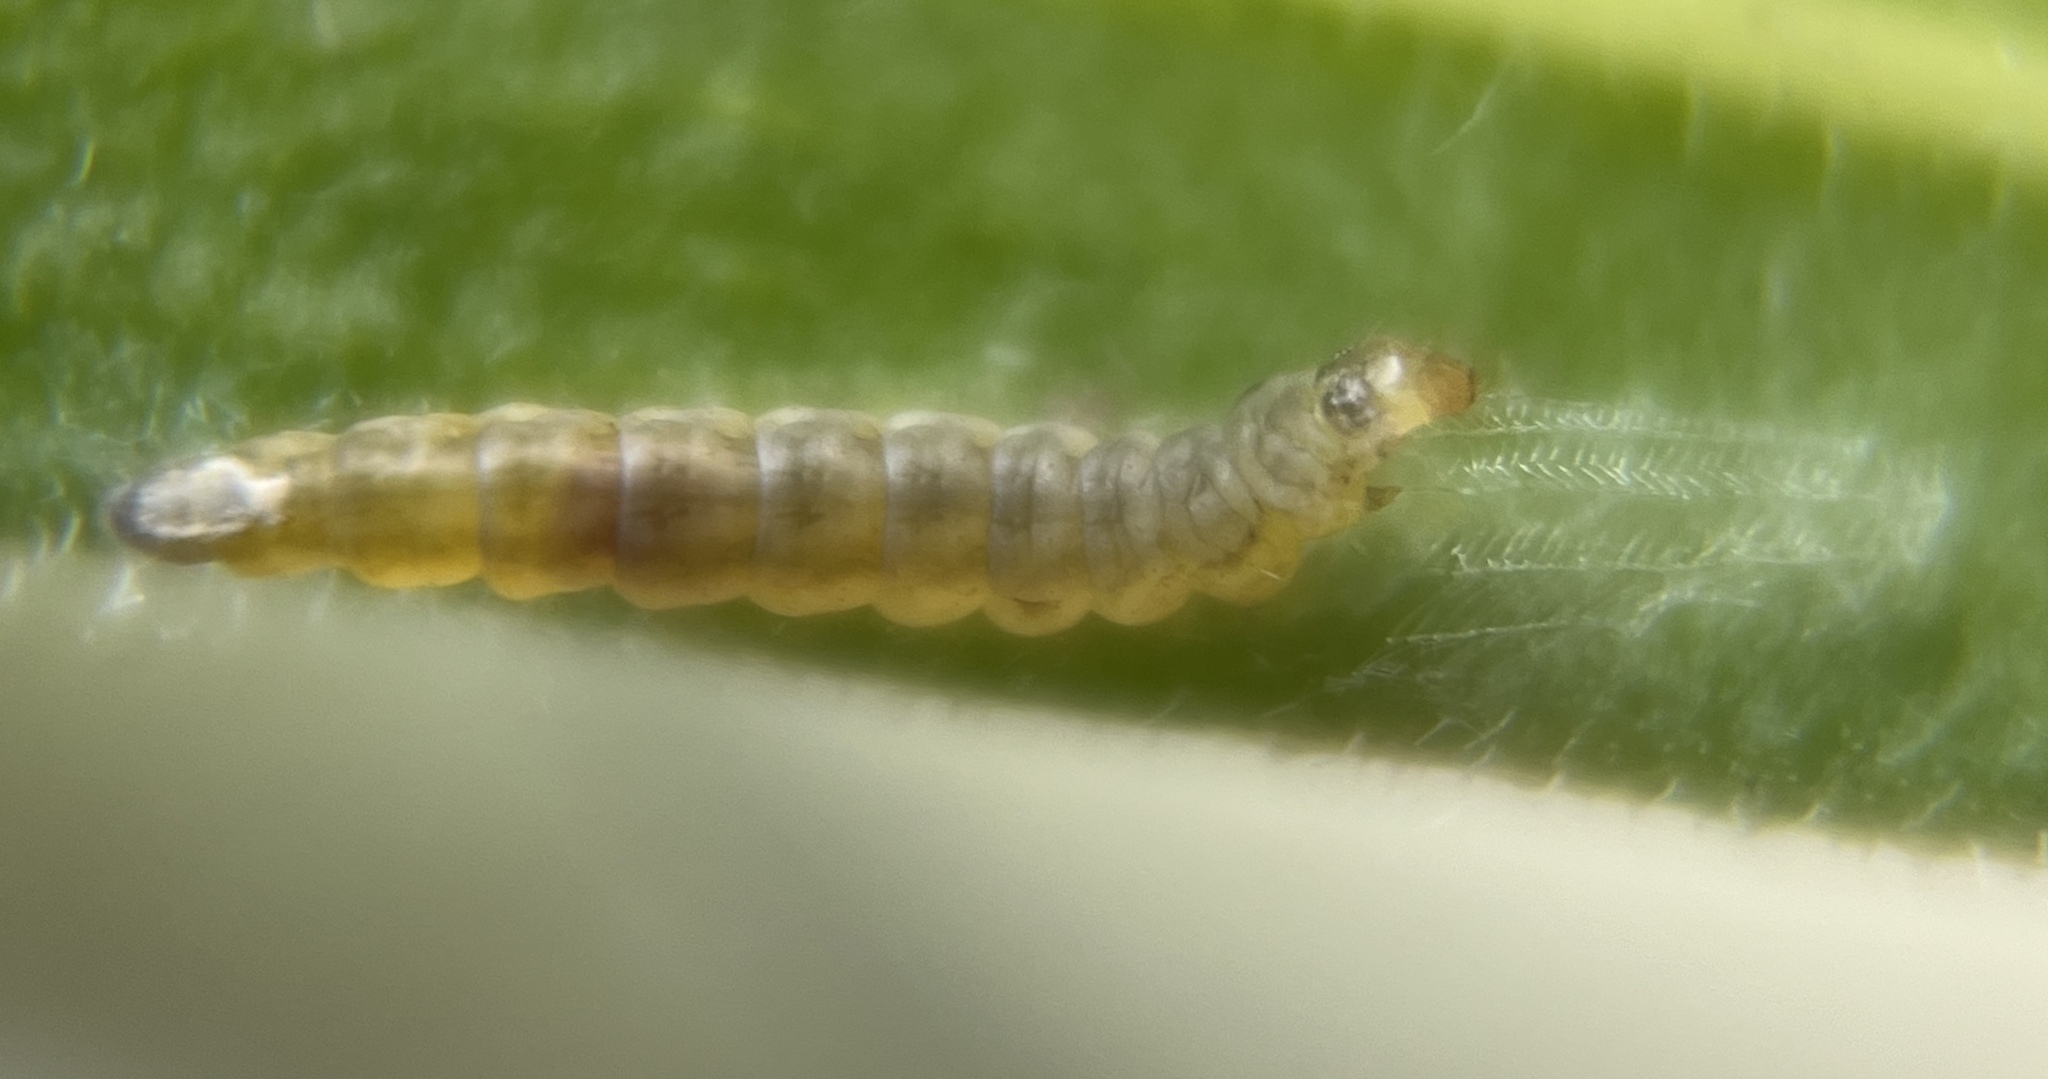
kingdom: Animalia
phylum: Arthropoda
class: Insecta
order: Lepidoptera
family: Bucculatricidae
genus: Bucculatrix
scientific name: Bucculatrix rhombophora
